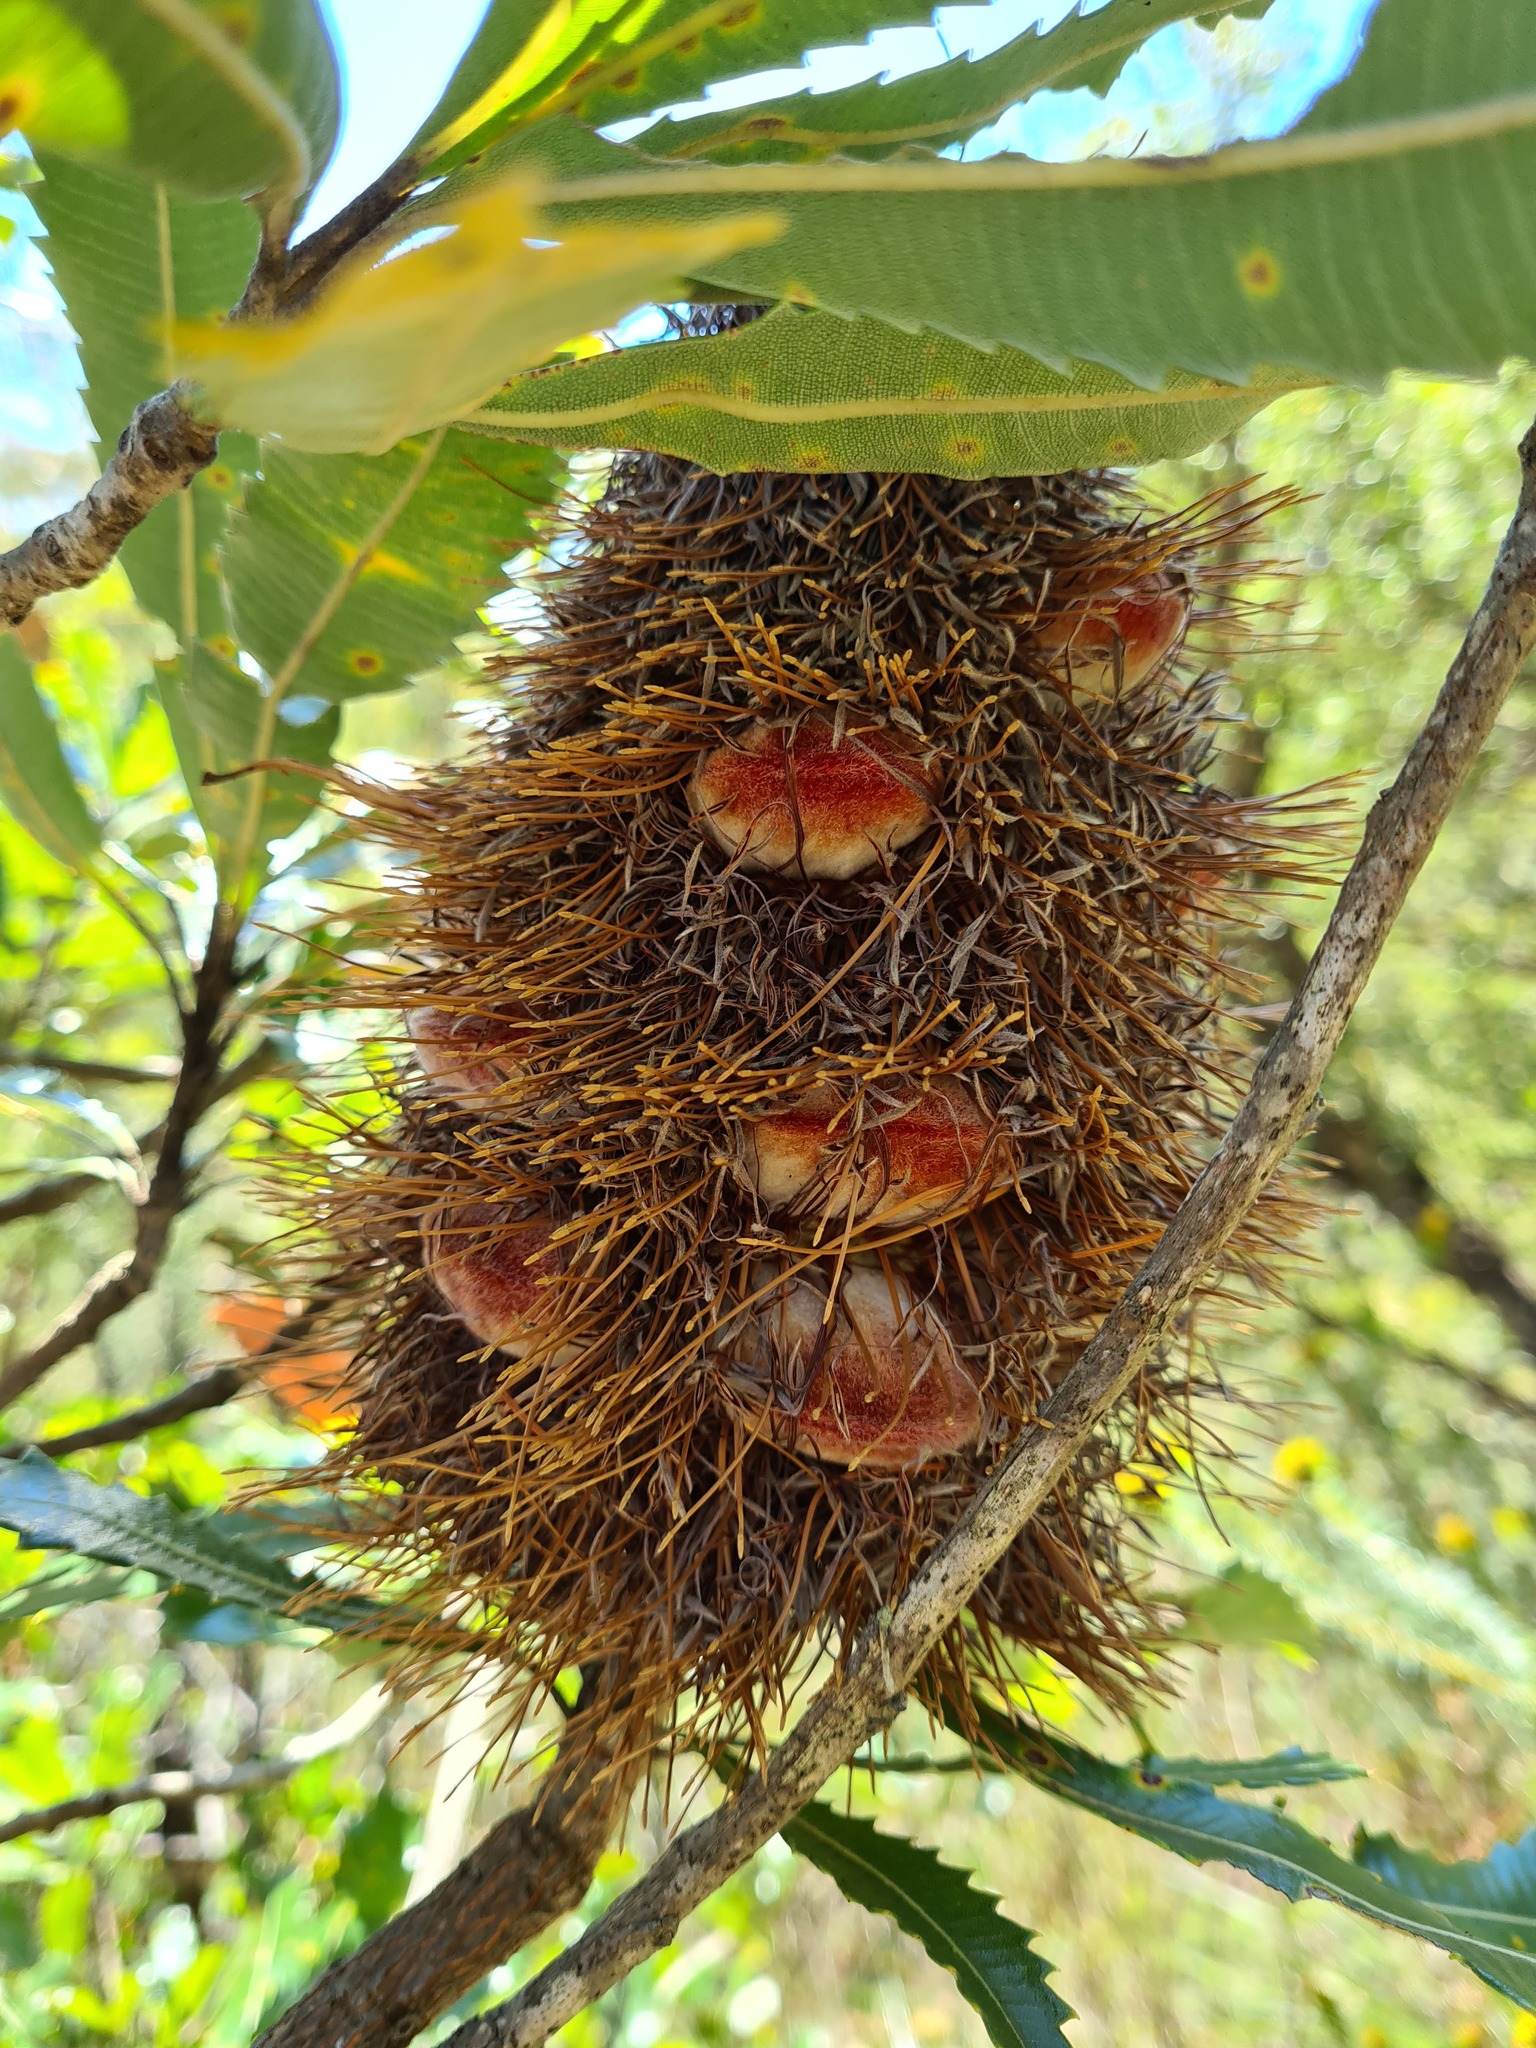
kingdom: Plantae
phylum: Tracheophyta
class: Magnoliopsida
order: Proteales
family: Proteaceae
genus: Banksia
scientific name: Banksia serrata
